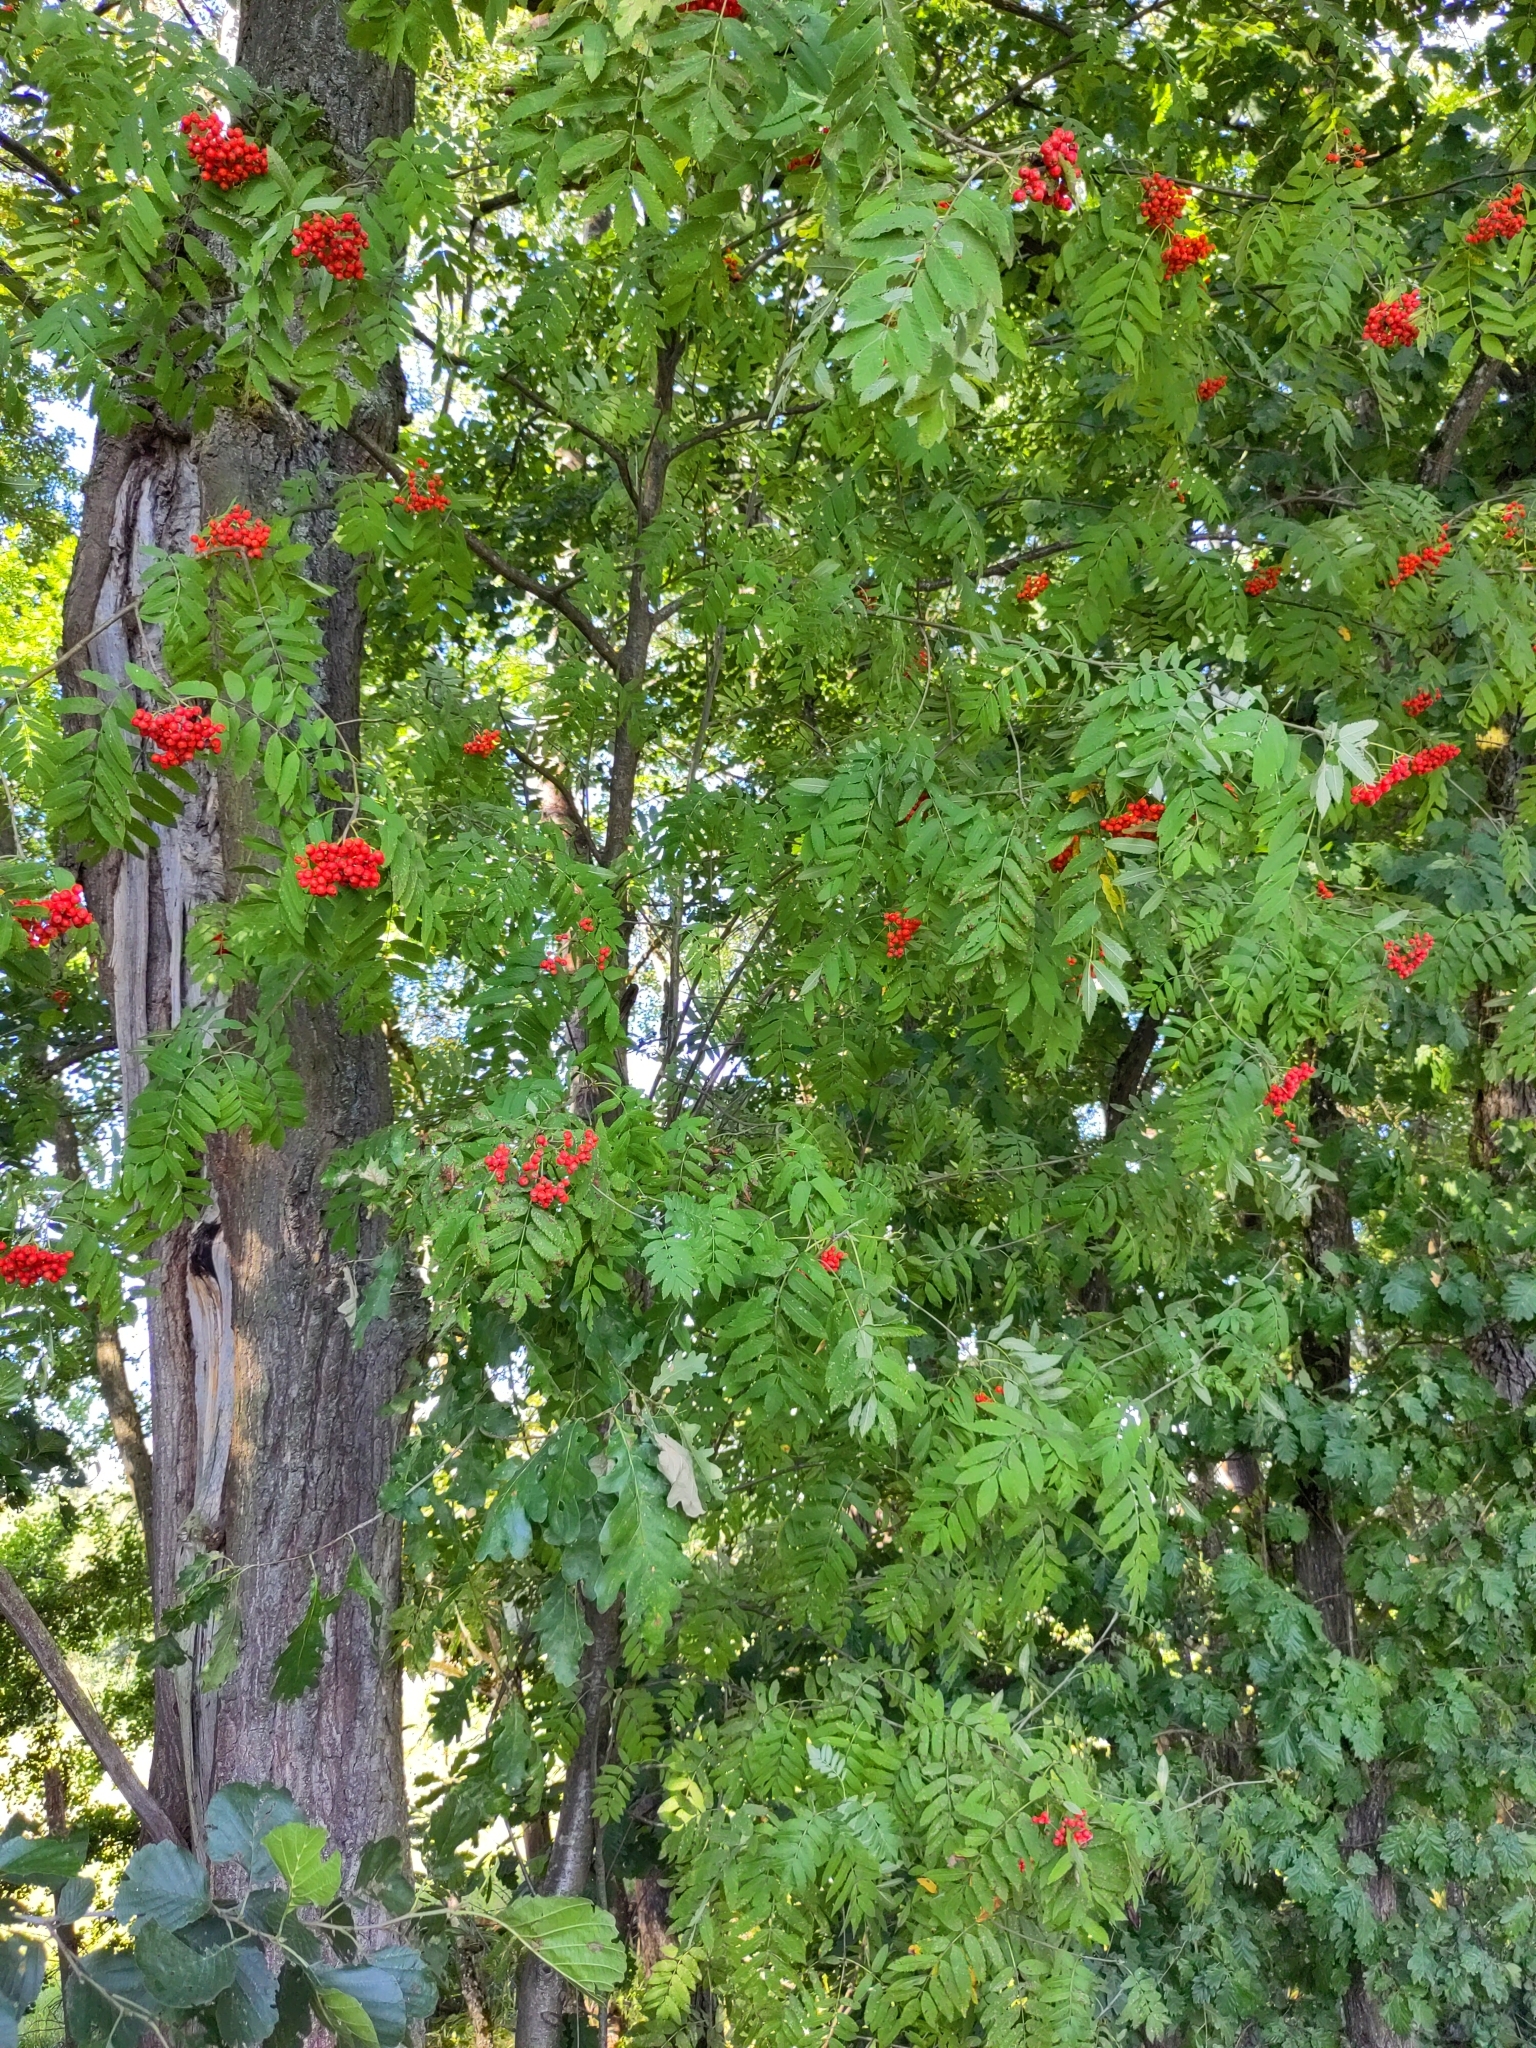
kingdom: Plantae
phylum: Tracheophyta
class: Magnoliopsida
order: Rosales
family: Rosaceae
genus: Sorbus
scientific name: Sorbus aucuparia
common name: Rowan
